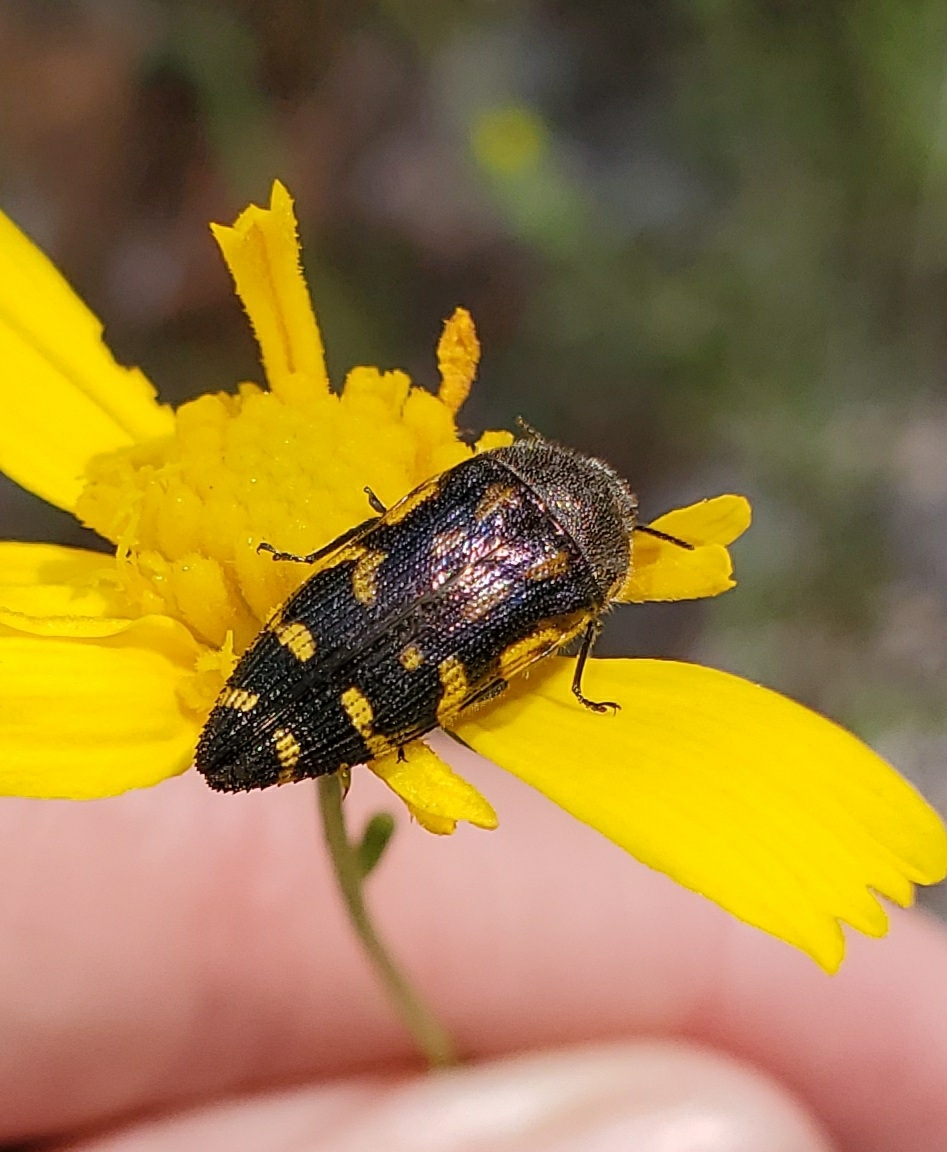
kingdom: Animalia
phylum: Arthropoda
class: Insecta
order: Coleoptera
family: Buprestidae
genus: Acmaeodera
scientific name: Acmaeodera pulchella
